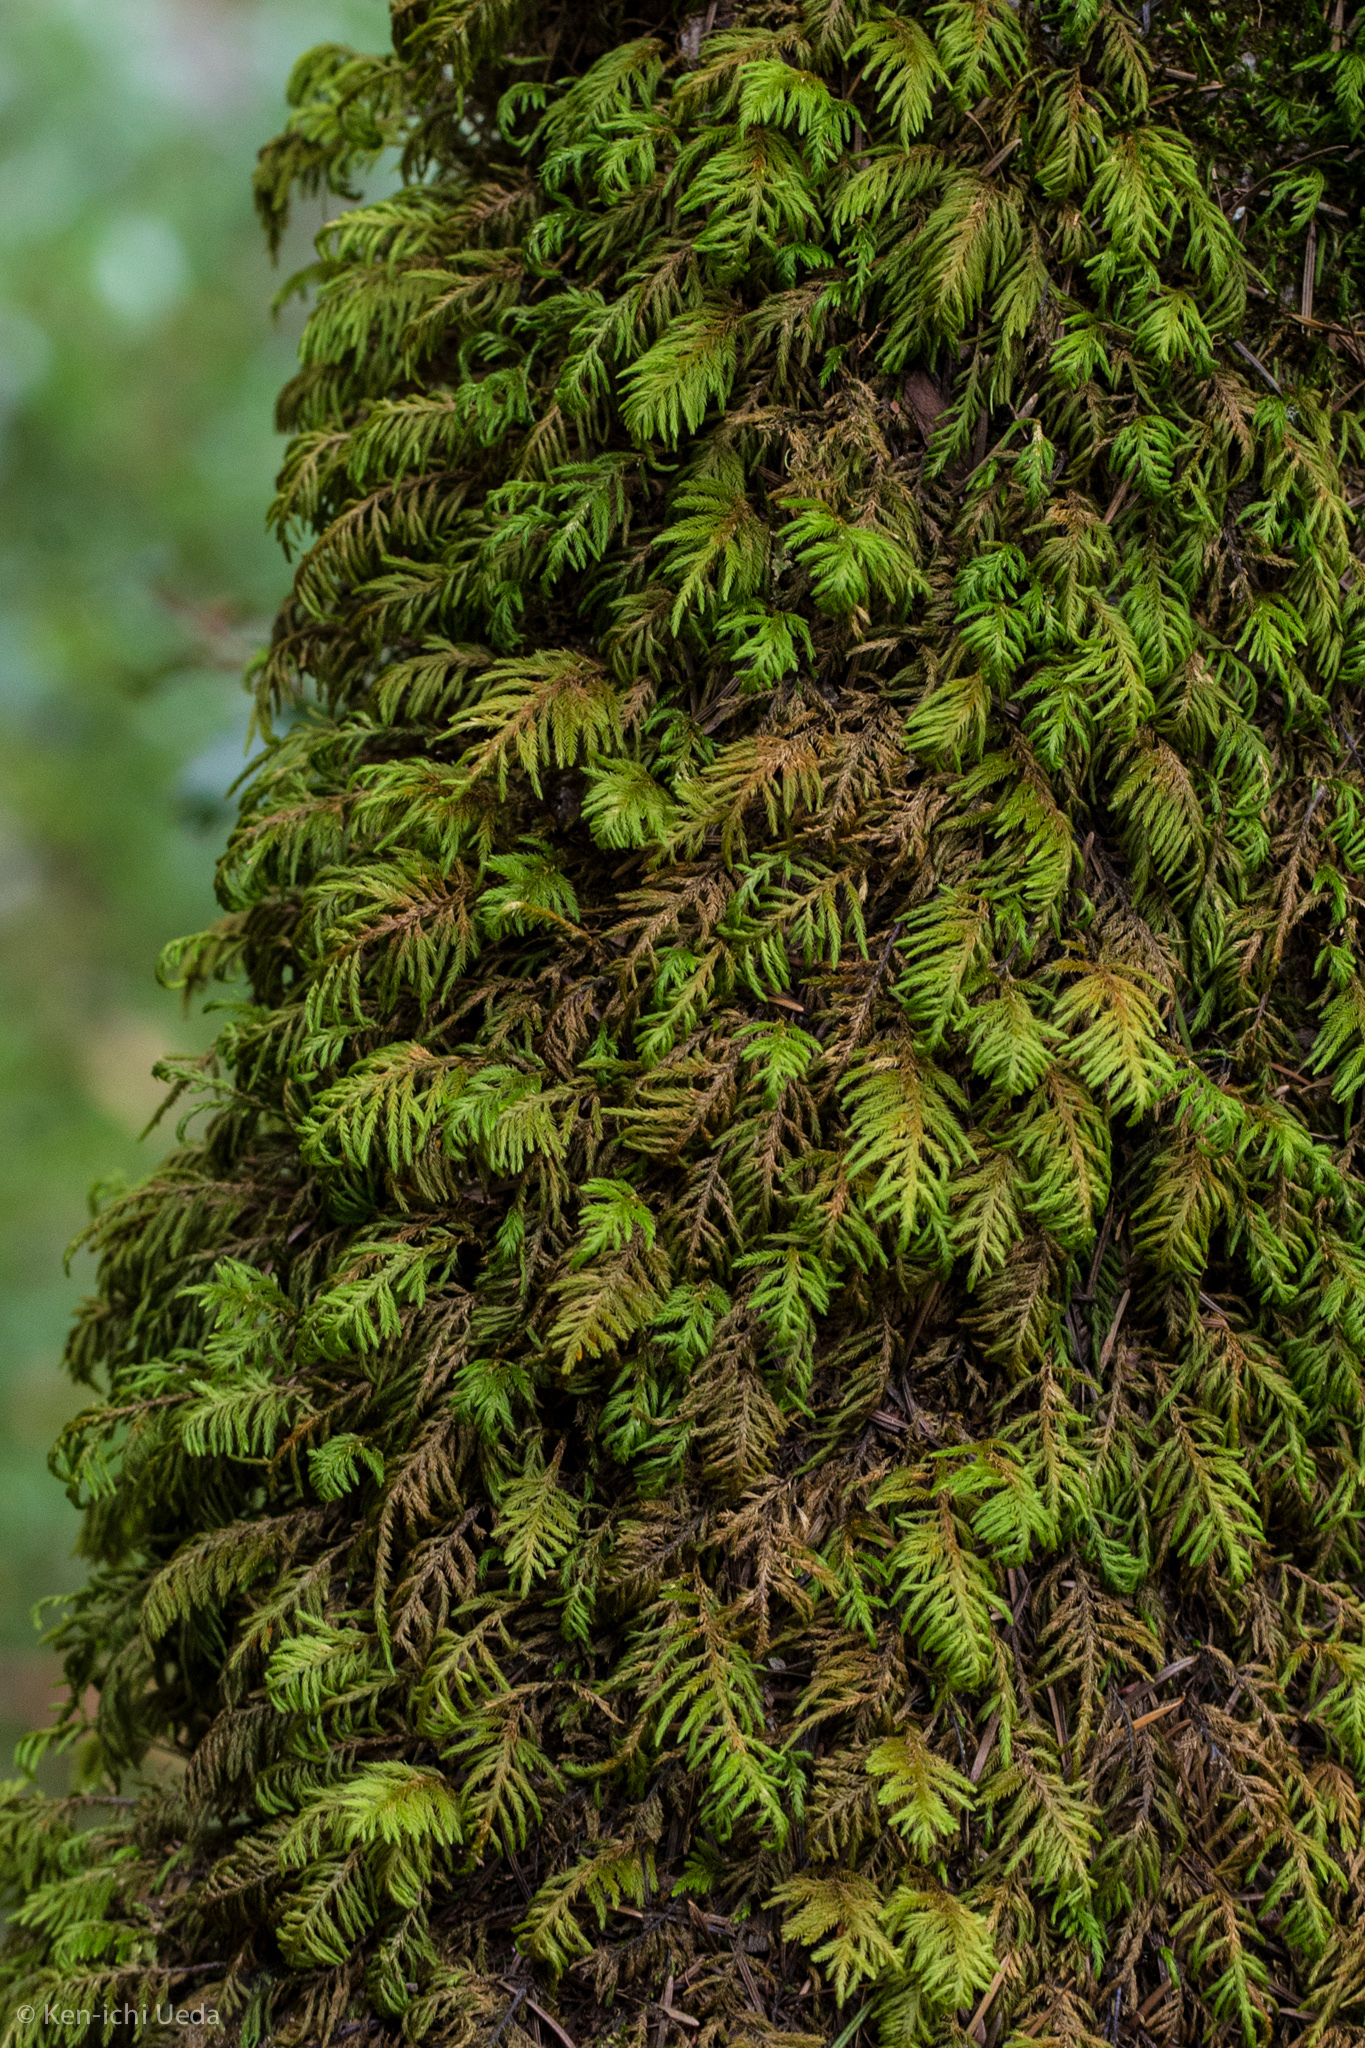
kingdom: Plantae
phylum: Bryophyta
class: Bryopsida
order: Hypnales
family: Cryphaeaceae
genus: Dendroalsia
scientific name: Dendroalsia abietina
